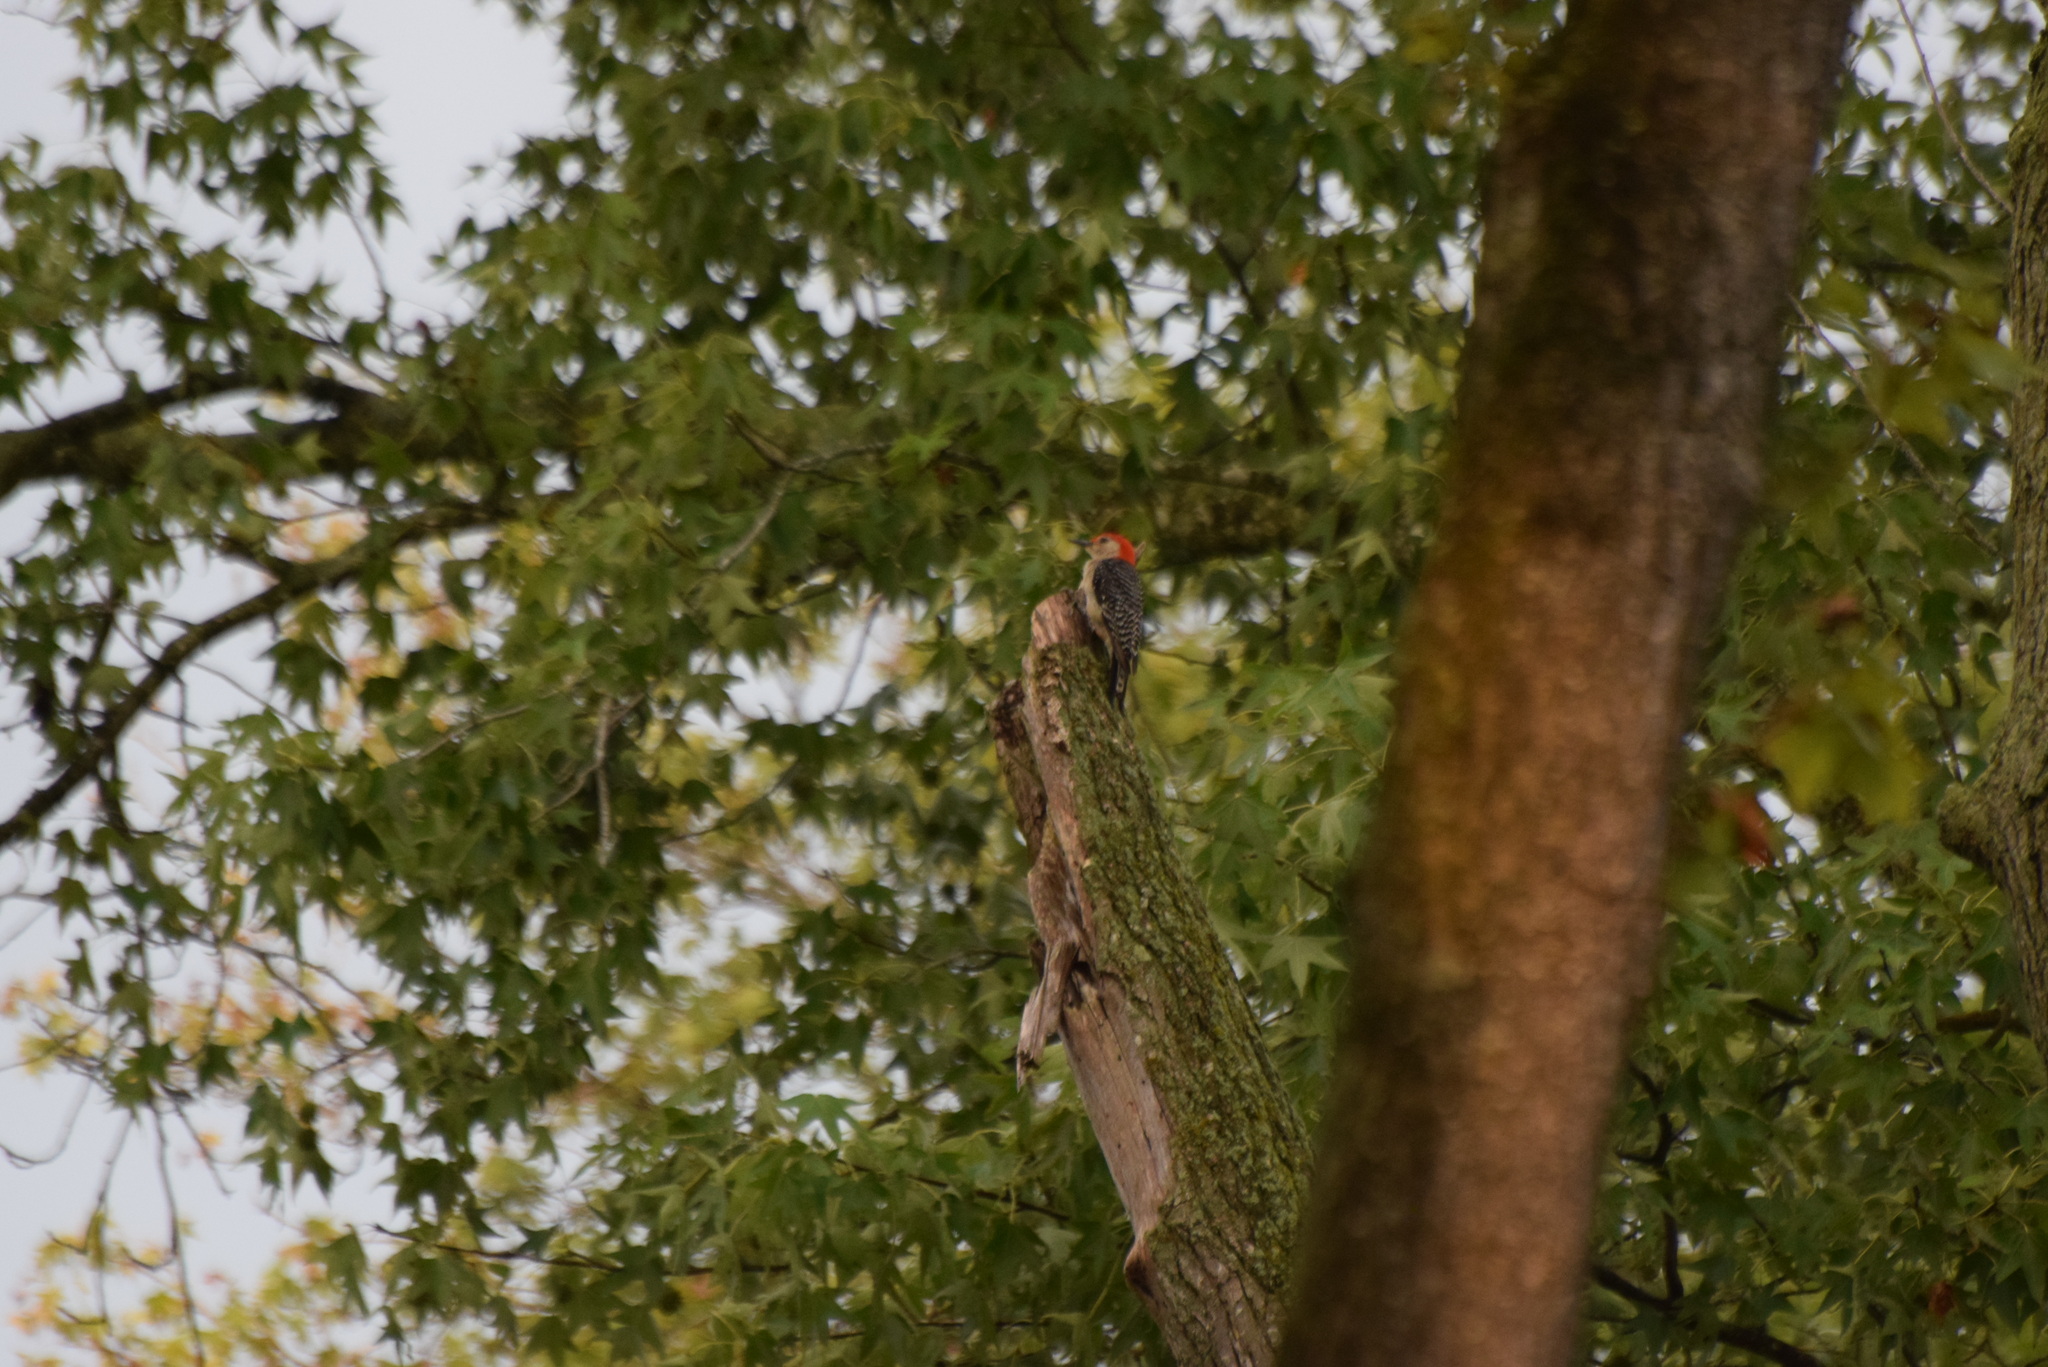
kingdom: Animalia
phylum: Chordata
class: Aves
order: Piciformes
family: Picidae
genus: Melanerpes
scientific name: Melanerpes carolinus
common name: Red-bellied woodpecker
